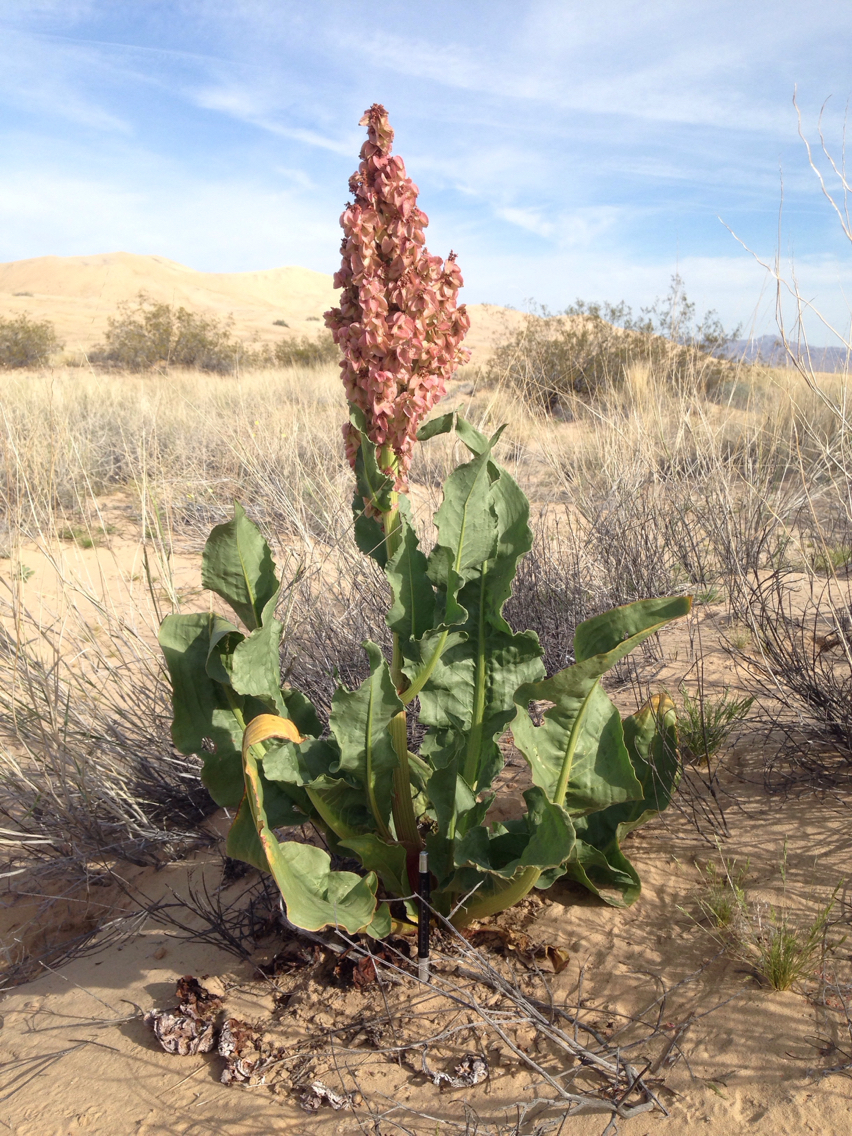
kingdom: Plantae
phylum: Tracheophyta
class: Magnoliopsida
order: Caryophyllales
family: Polygonaceae
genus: Rumex
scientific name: Rumex hymenosepalus
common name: Ganagra
